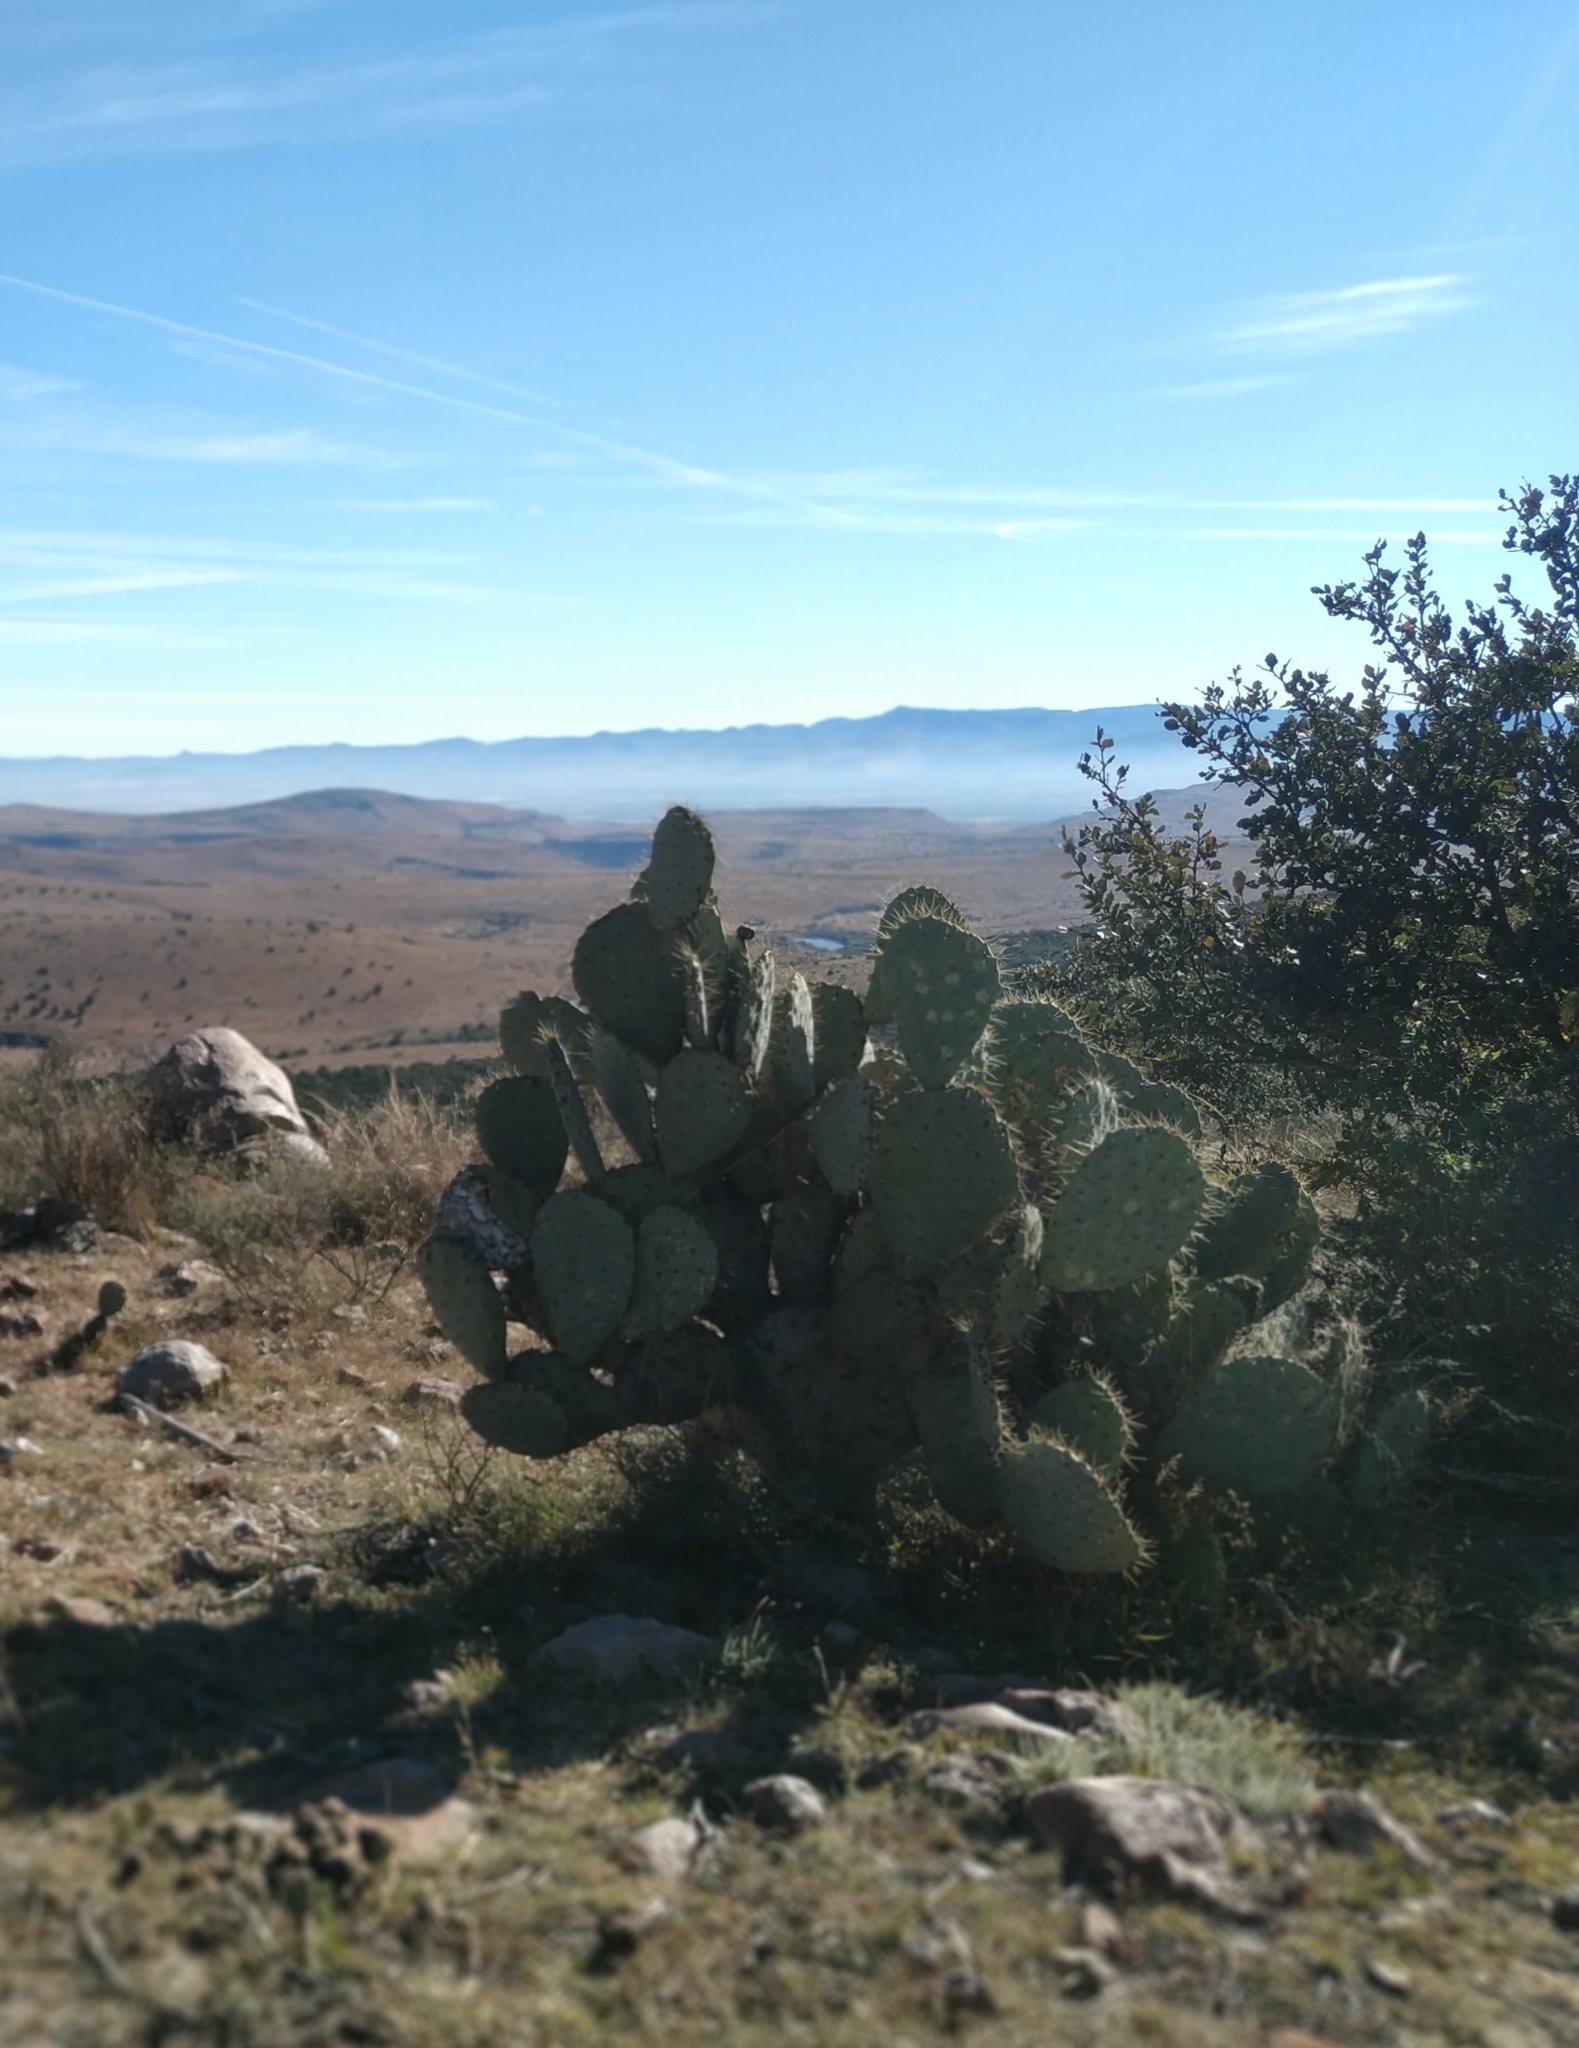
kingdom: Plantae
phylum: Tracheophyta
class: Magnoliopsida
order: Caryophyllales
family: Cactaceae
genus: Opuntia
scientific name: Opuntia robusta
